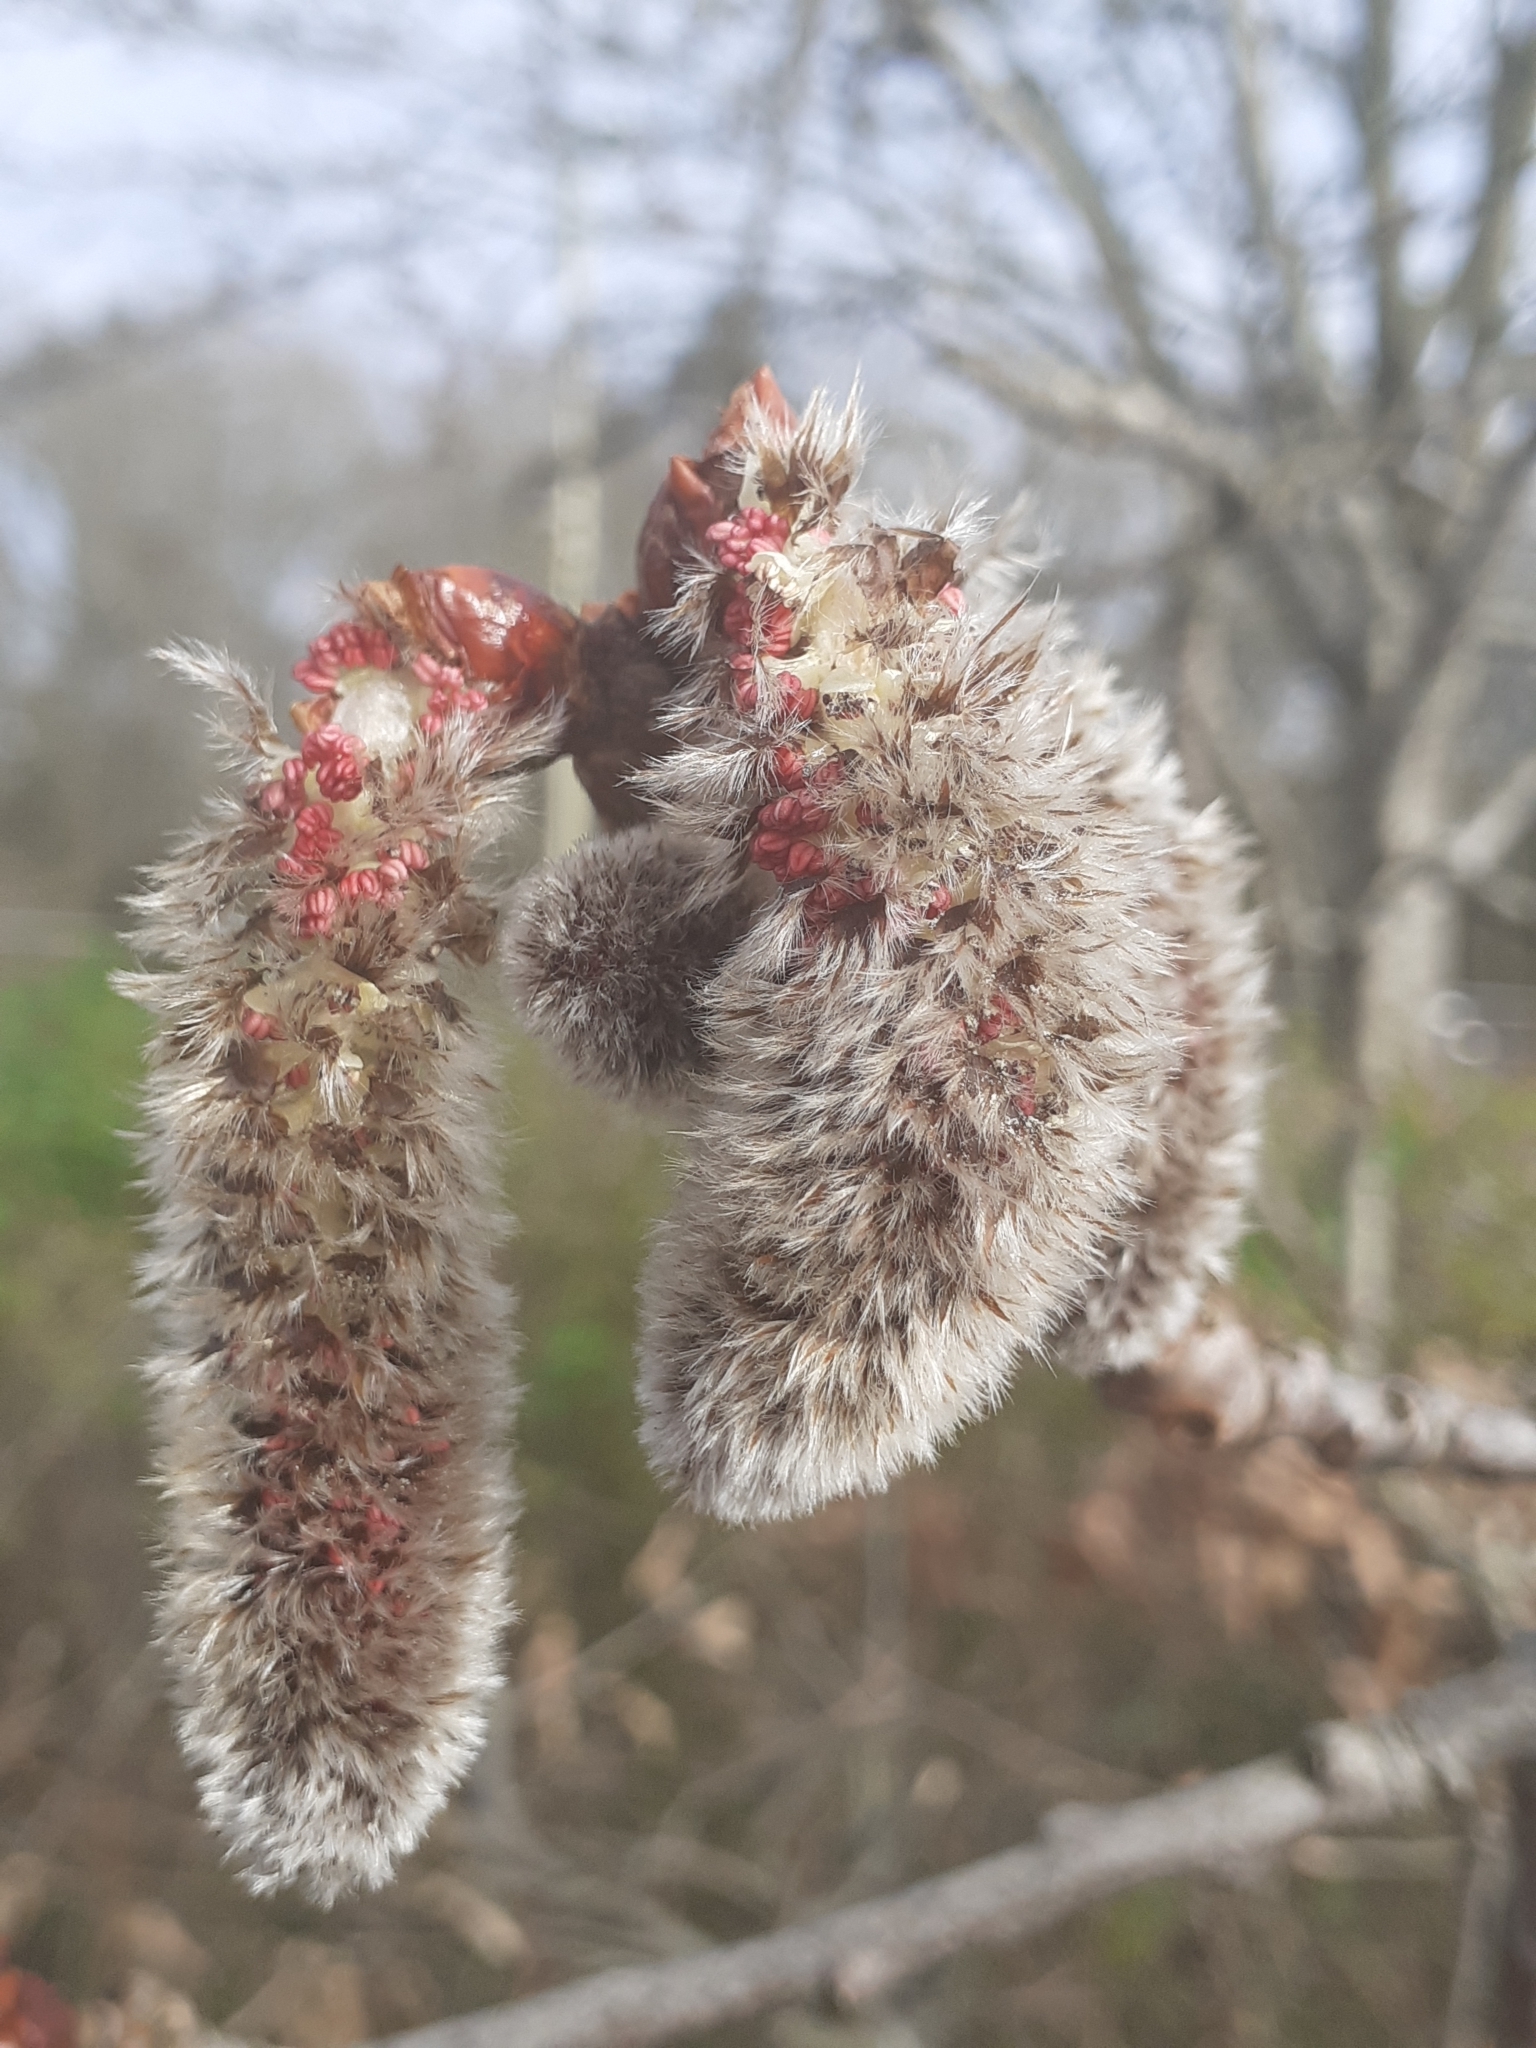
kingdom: Plantae
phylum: Tracheophyta
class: Magnoliopsida
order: Malpighiales
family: Salicaceae
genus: Populus
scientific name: Populus tremula
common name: European aspen
